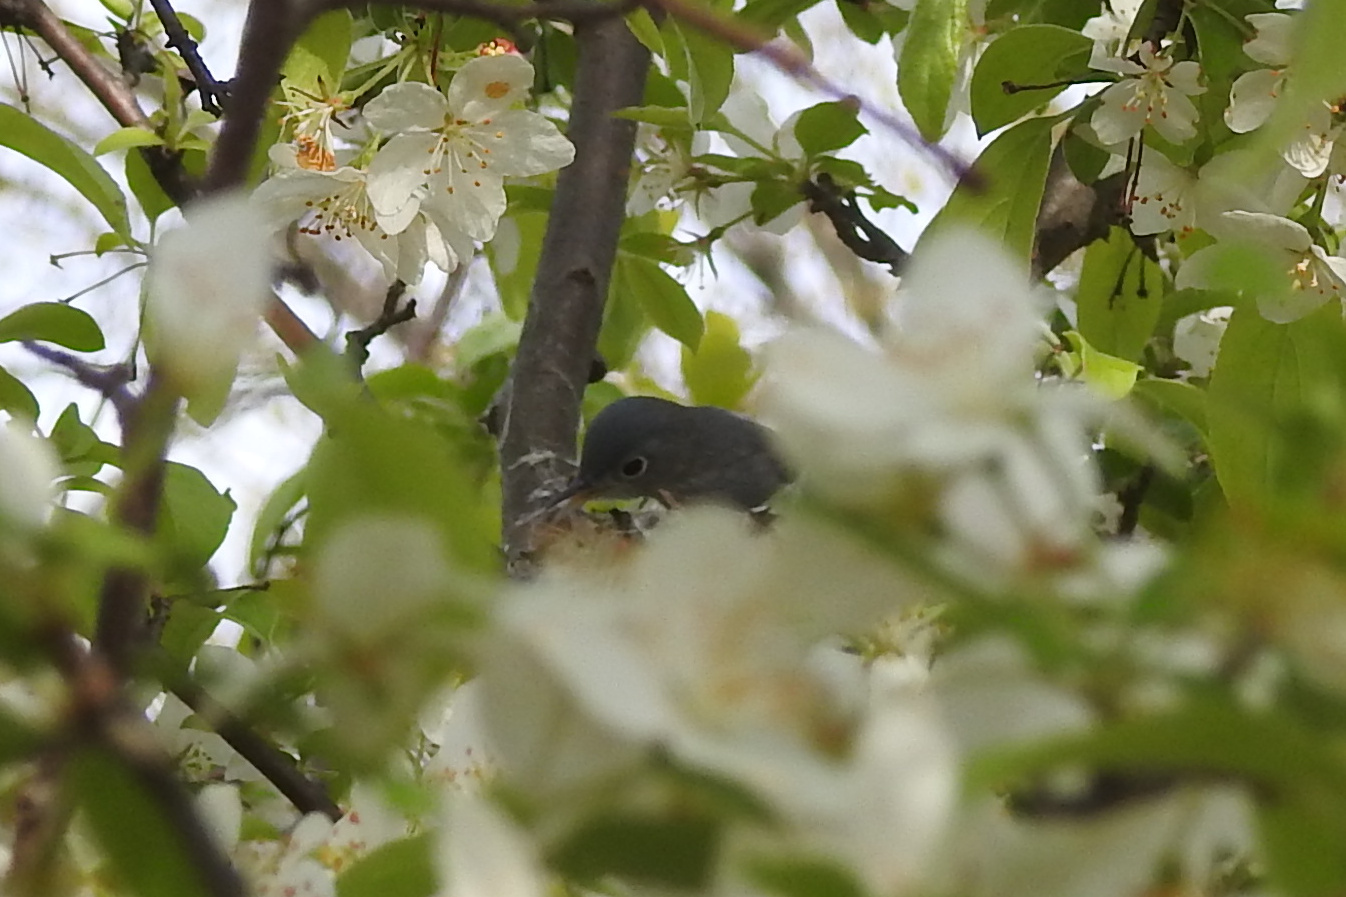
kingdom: Animalia
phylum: Chordata
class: Aves
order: Passeriformes
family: Polioptilidae
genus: Polioptila
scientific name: Polioptila caerulea
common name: Blue-gray gnatcatcher
